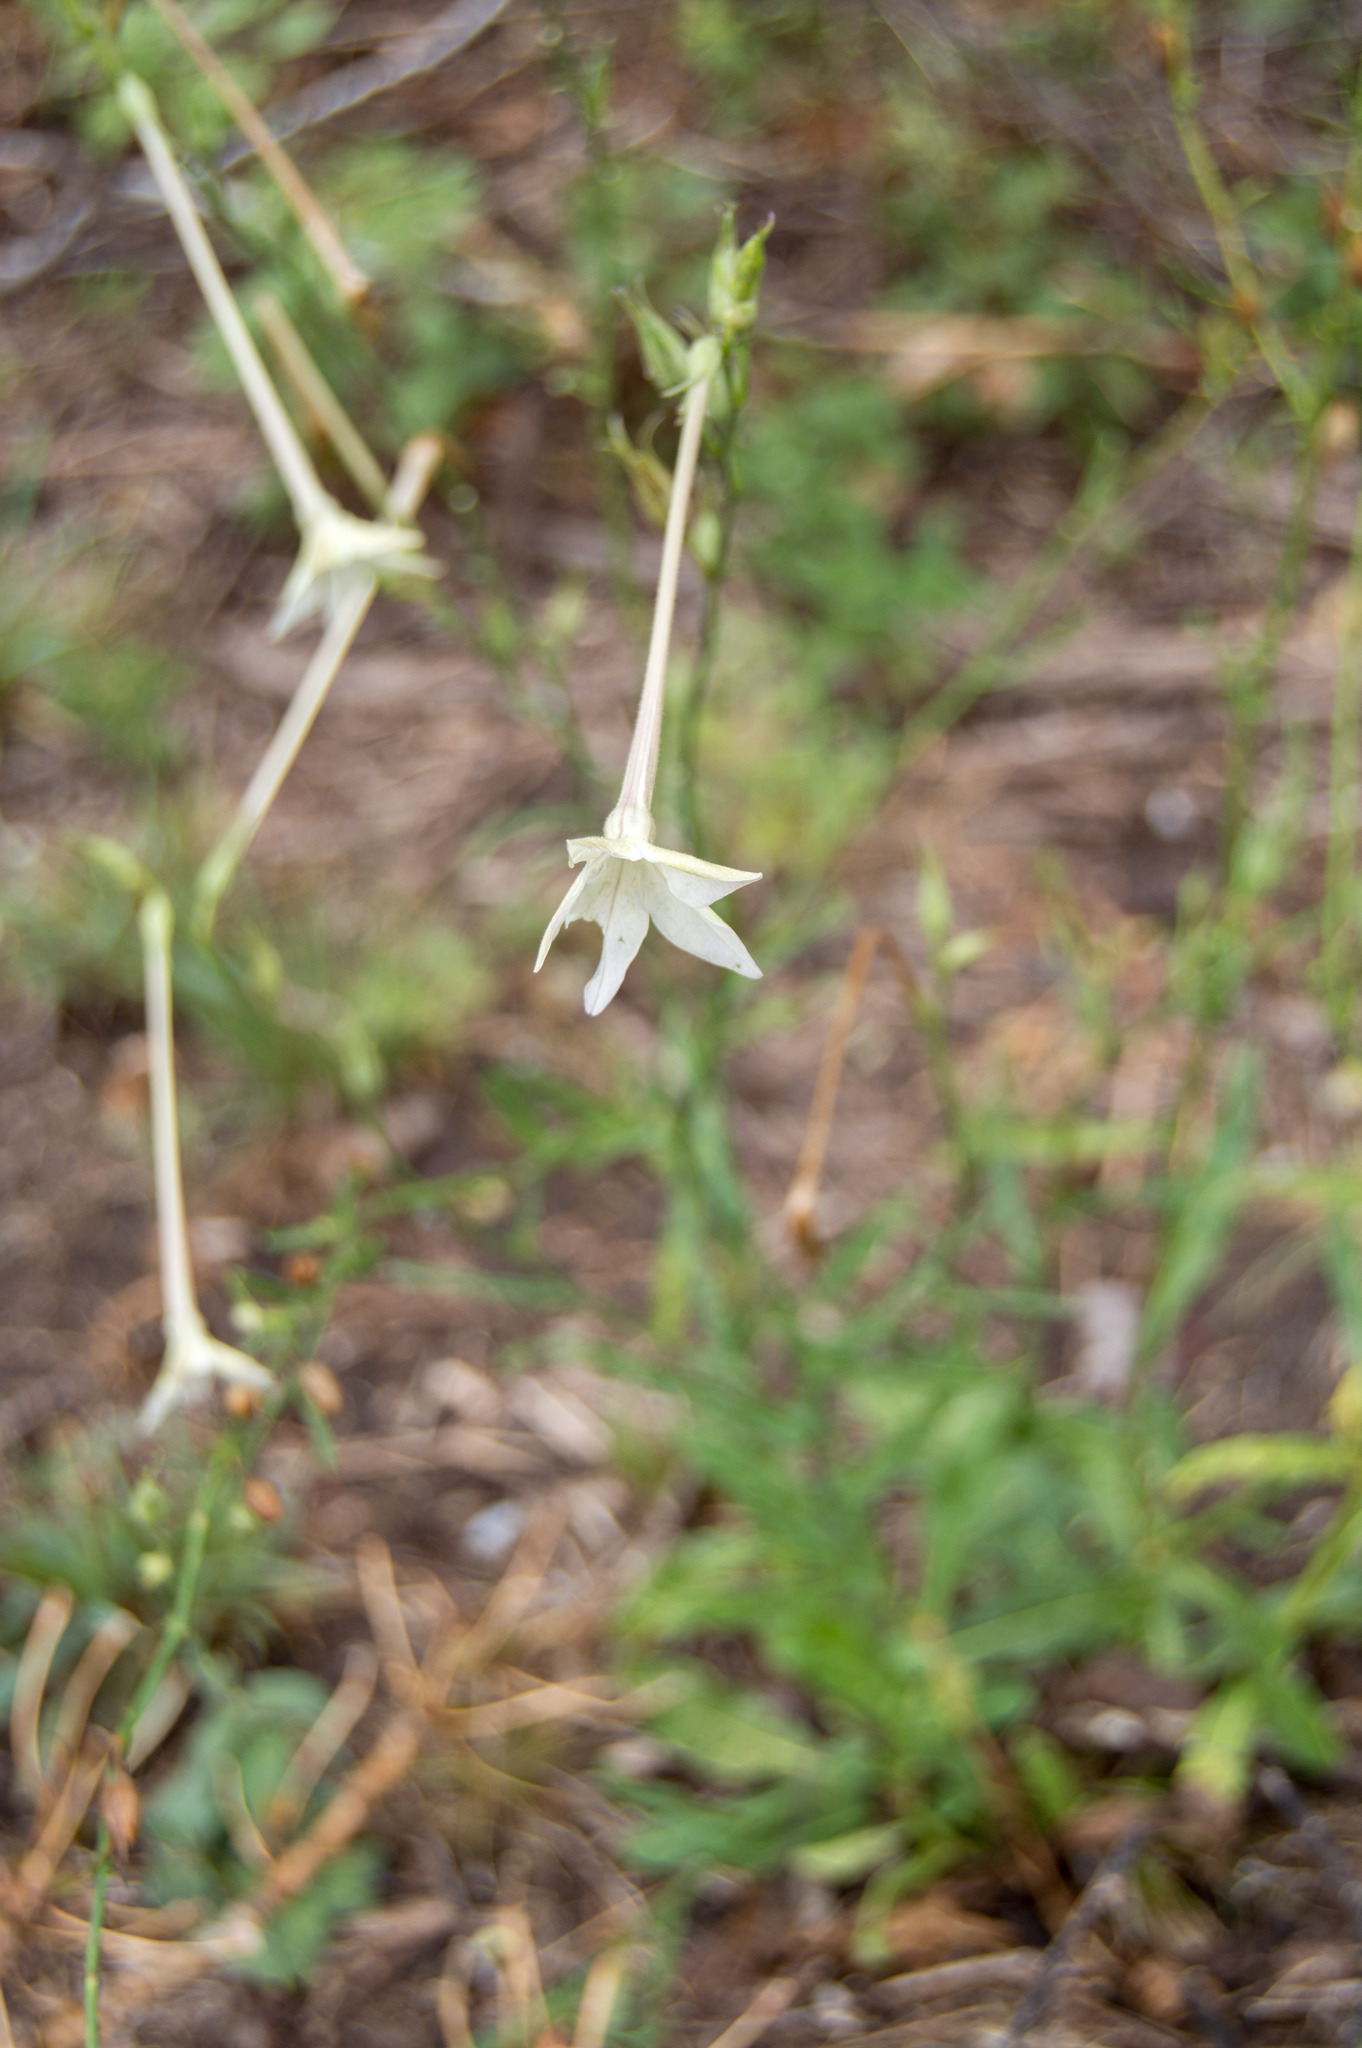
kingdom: Plantae
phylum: Tracheophyta
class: Magnoliopsida
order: Solanales
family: Solanaceae
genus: Nicotiana
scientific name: Nicotiana longiflora
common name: Long-flowered tobacco
